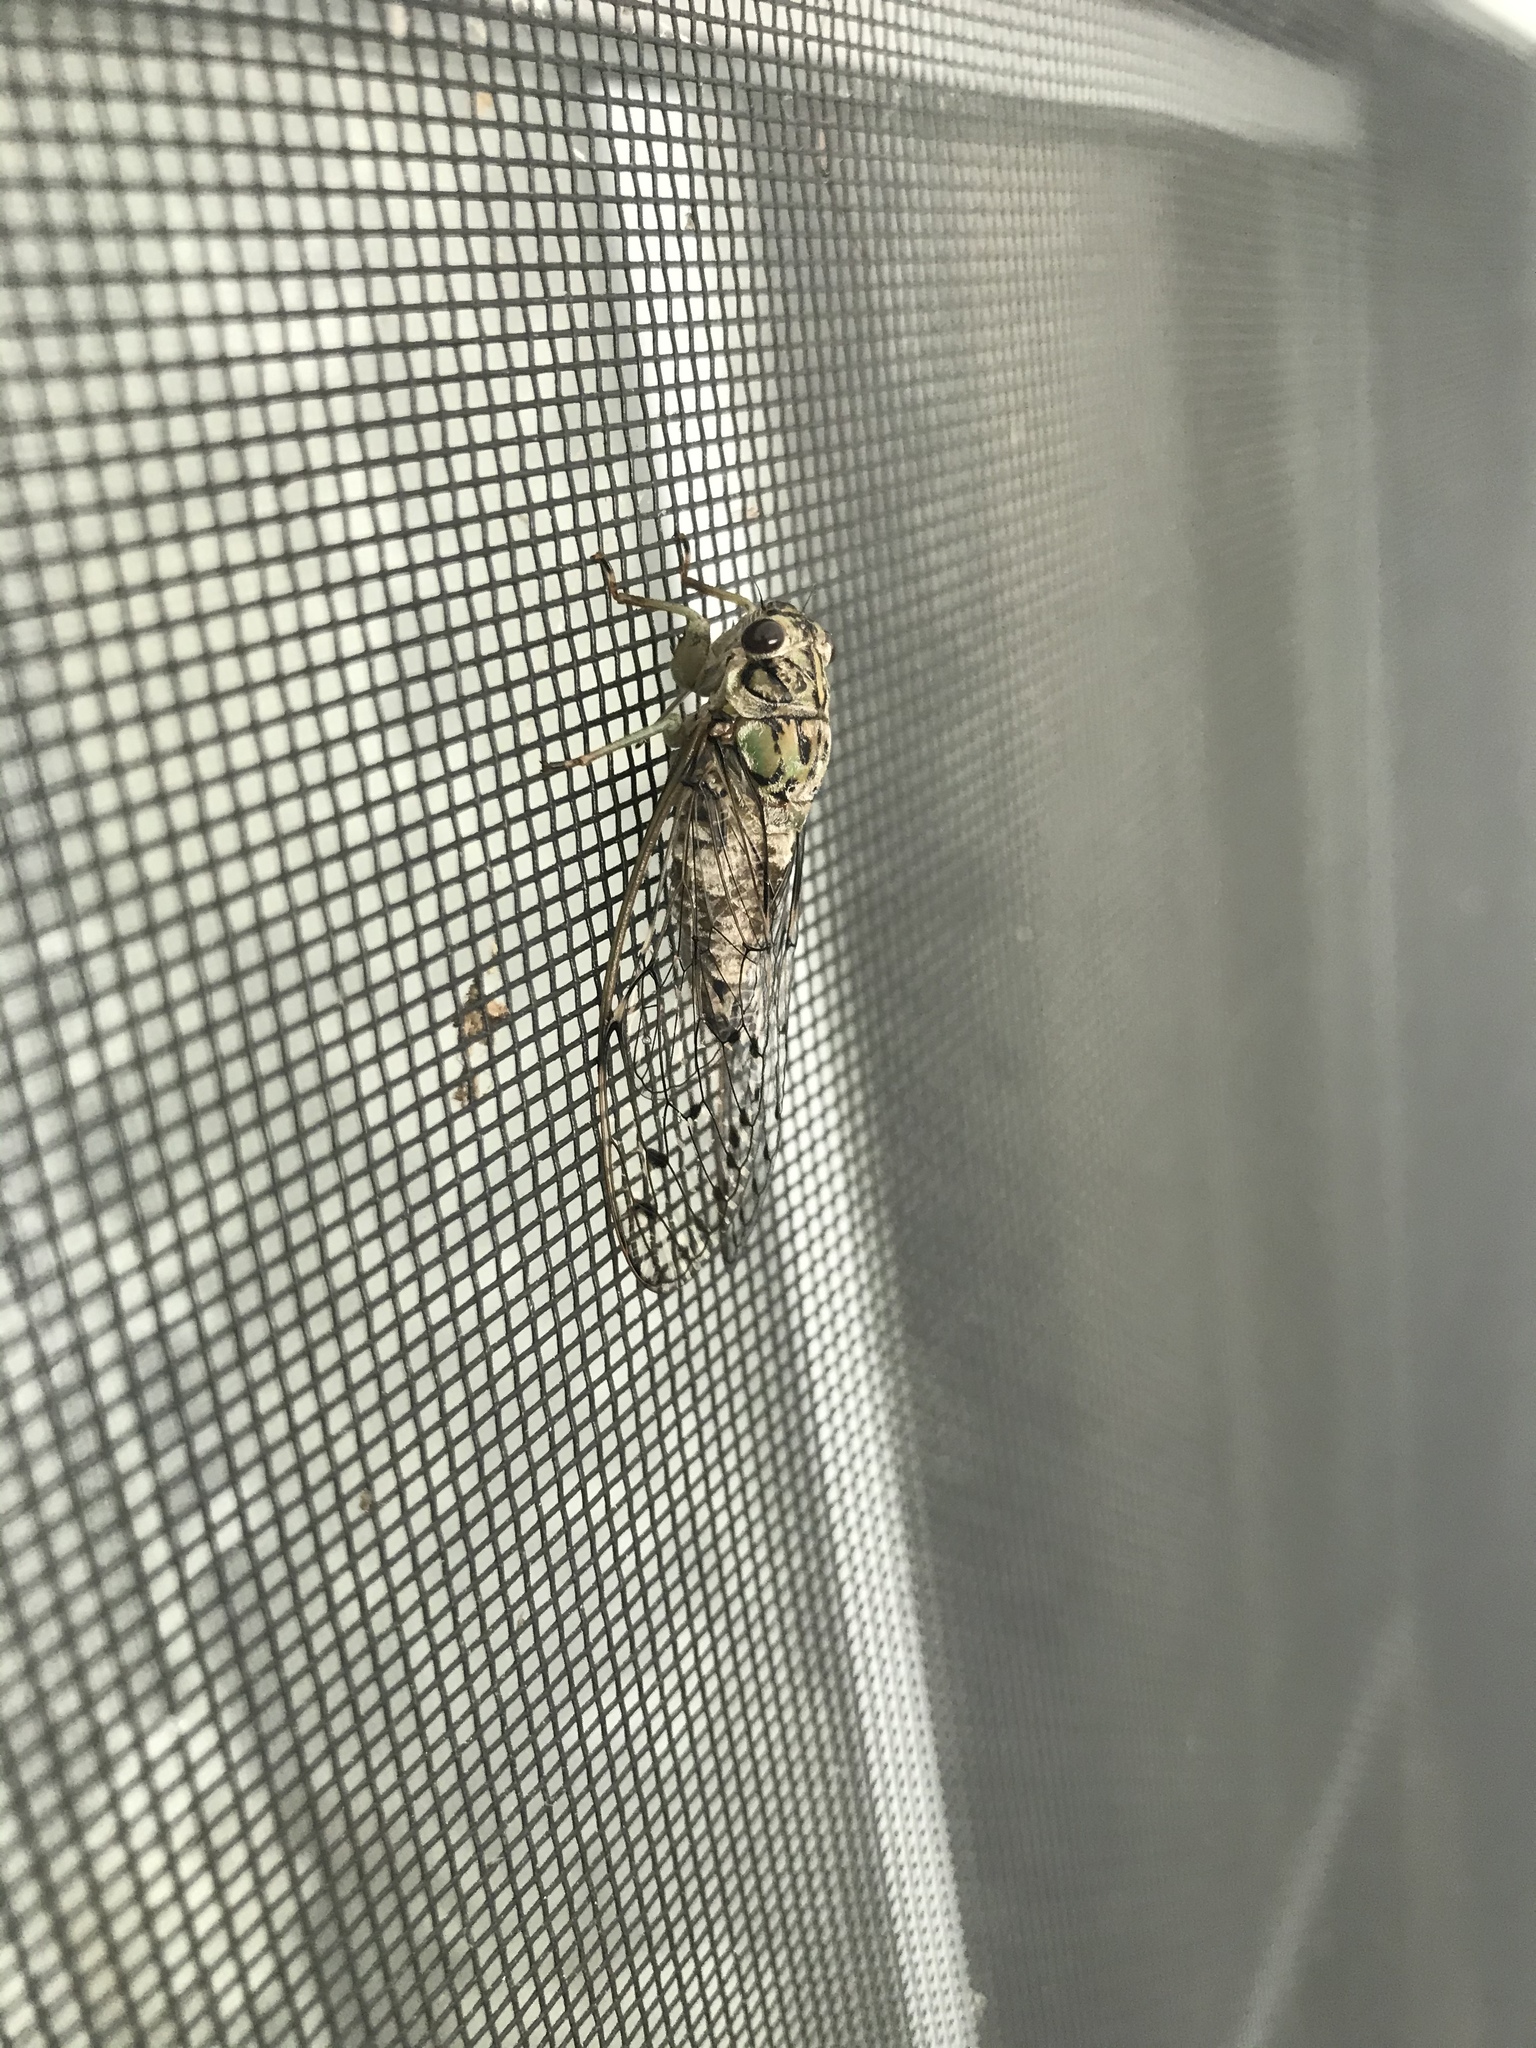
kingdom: Animalia
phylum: Arthropoda
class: Insecta
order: Hemiptera
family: Cicadidae
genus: Neocicada
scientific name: Neocicada hieroglyphica
